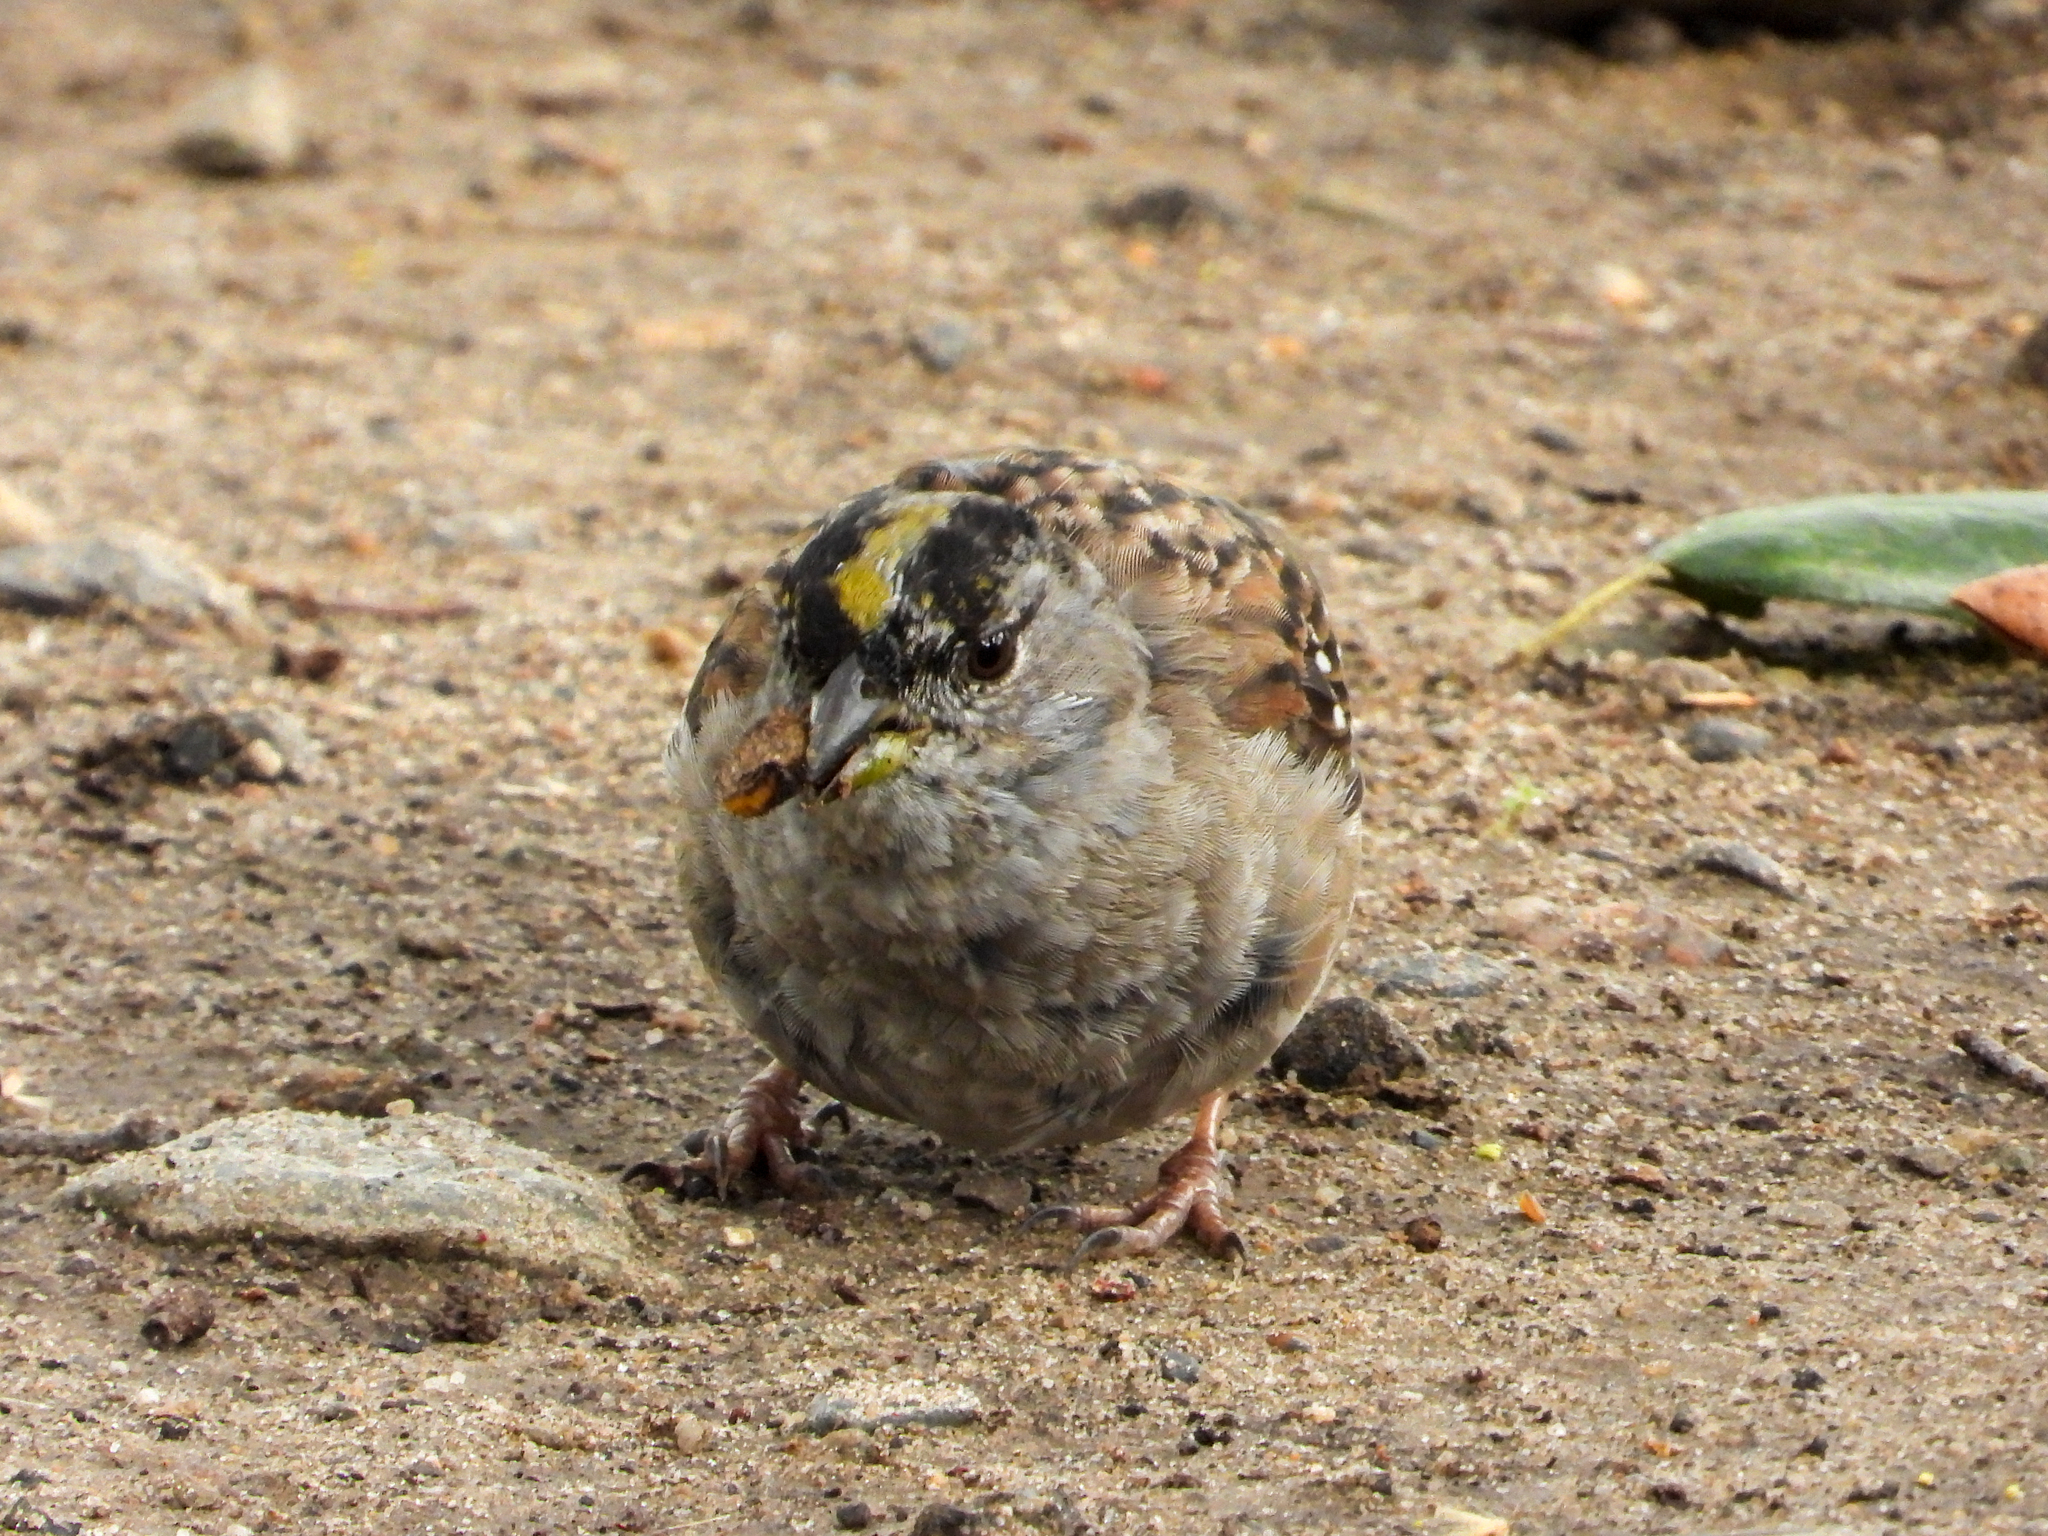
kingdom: Animalia
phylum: Chordata
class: Aves
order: Passeriformes
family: Passerellidae
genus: Zonotrichia
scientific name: Zonotrichia atricapilla
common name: Golden-crowned sparrow
